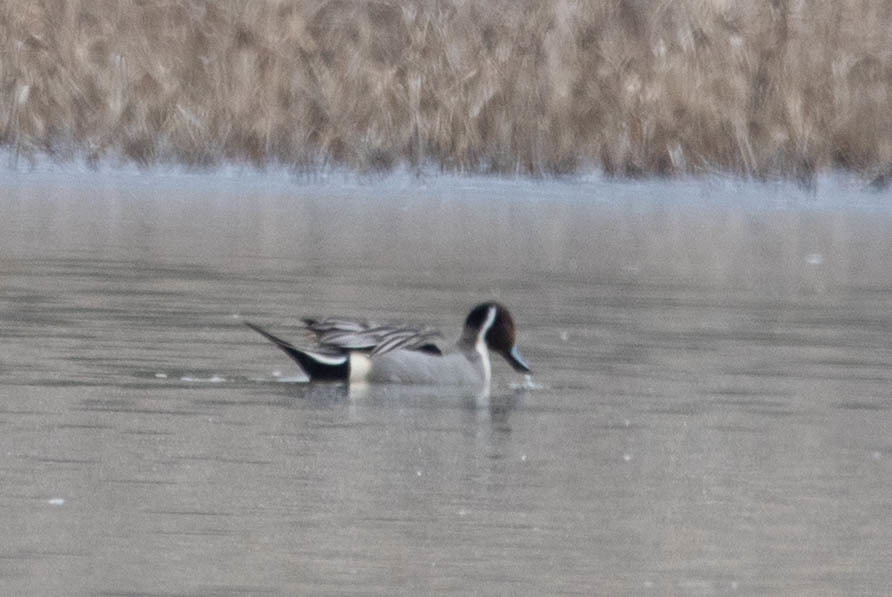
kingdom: Animalia
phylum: Chordata
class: Aves
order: Anseriformes
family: Anatidae
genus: Anas
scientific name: Anas acuta
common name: Northern pintail
